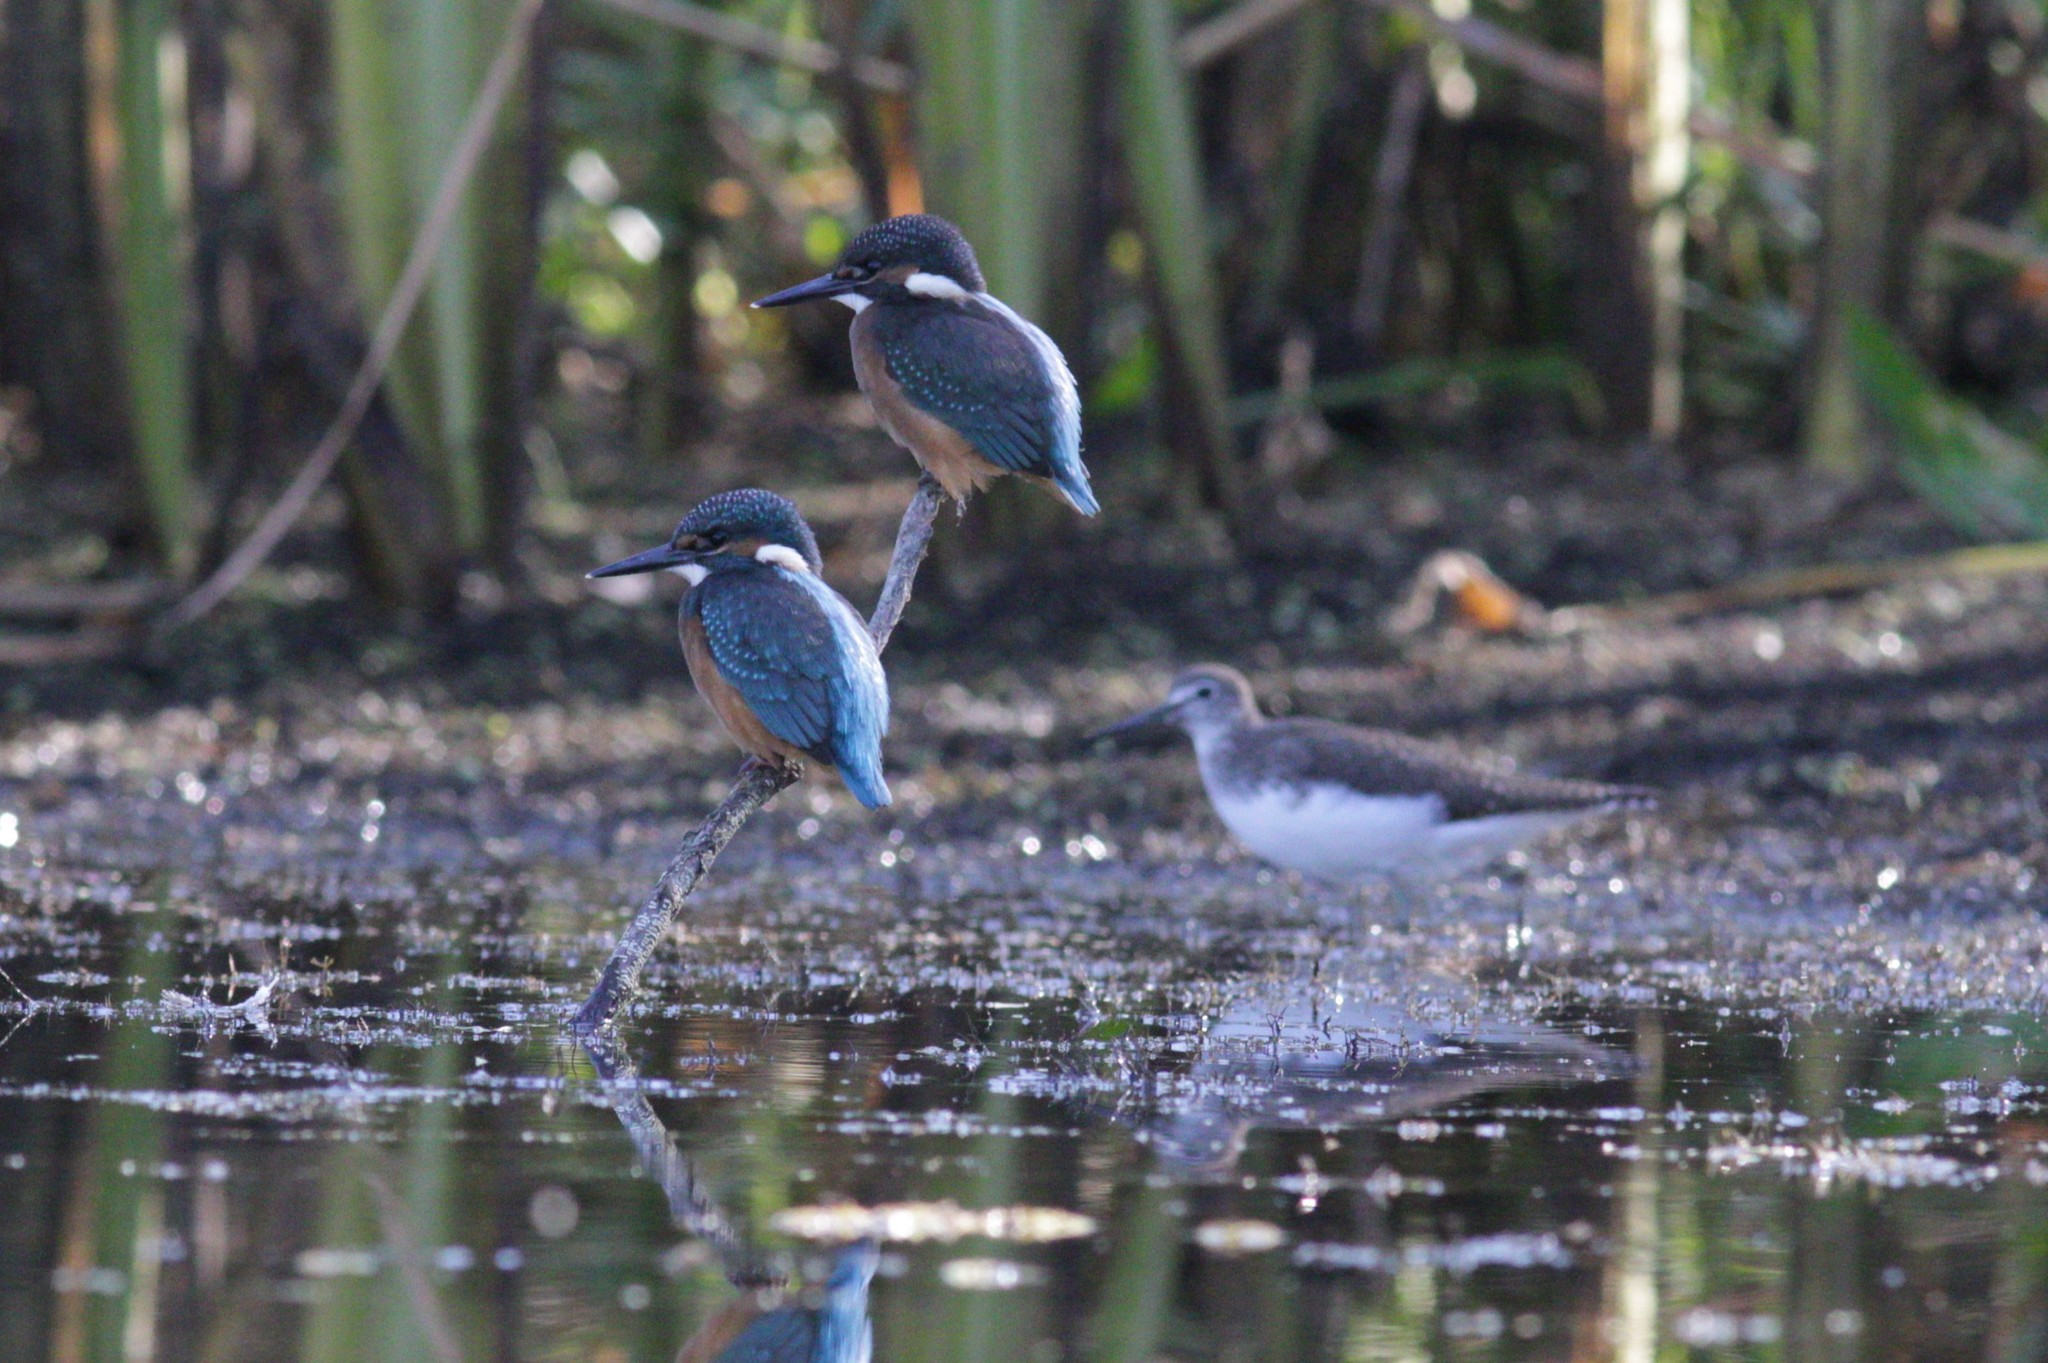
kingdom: Animalia
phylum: Chordata
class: Aves
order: Coraciiformes
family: Alcedinidae
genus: Alcedo
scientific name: Alcedo atthis
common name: Common kingfisher
